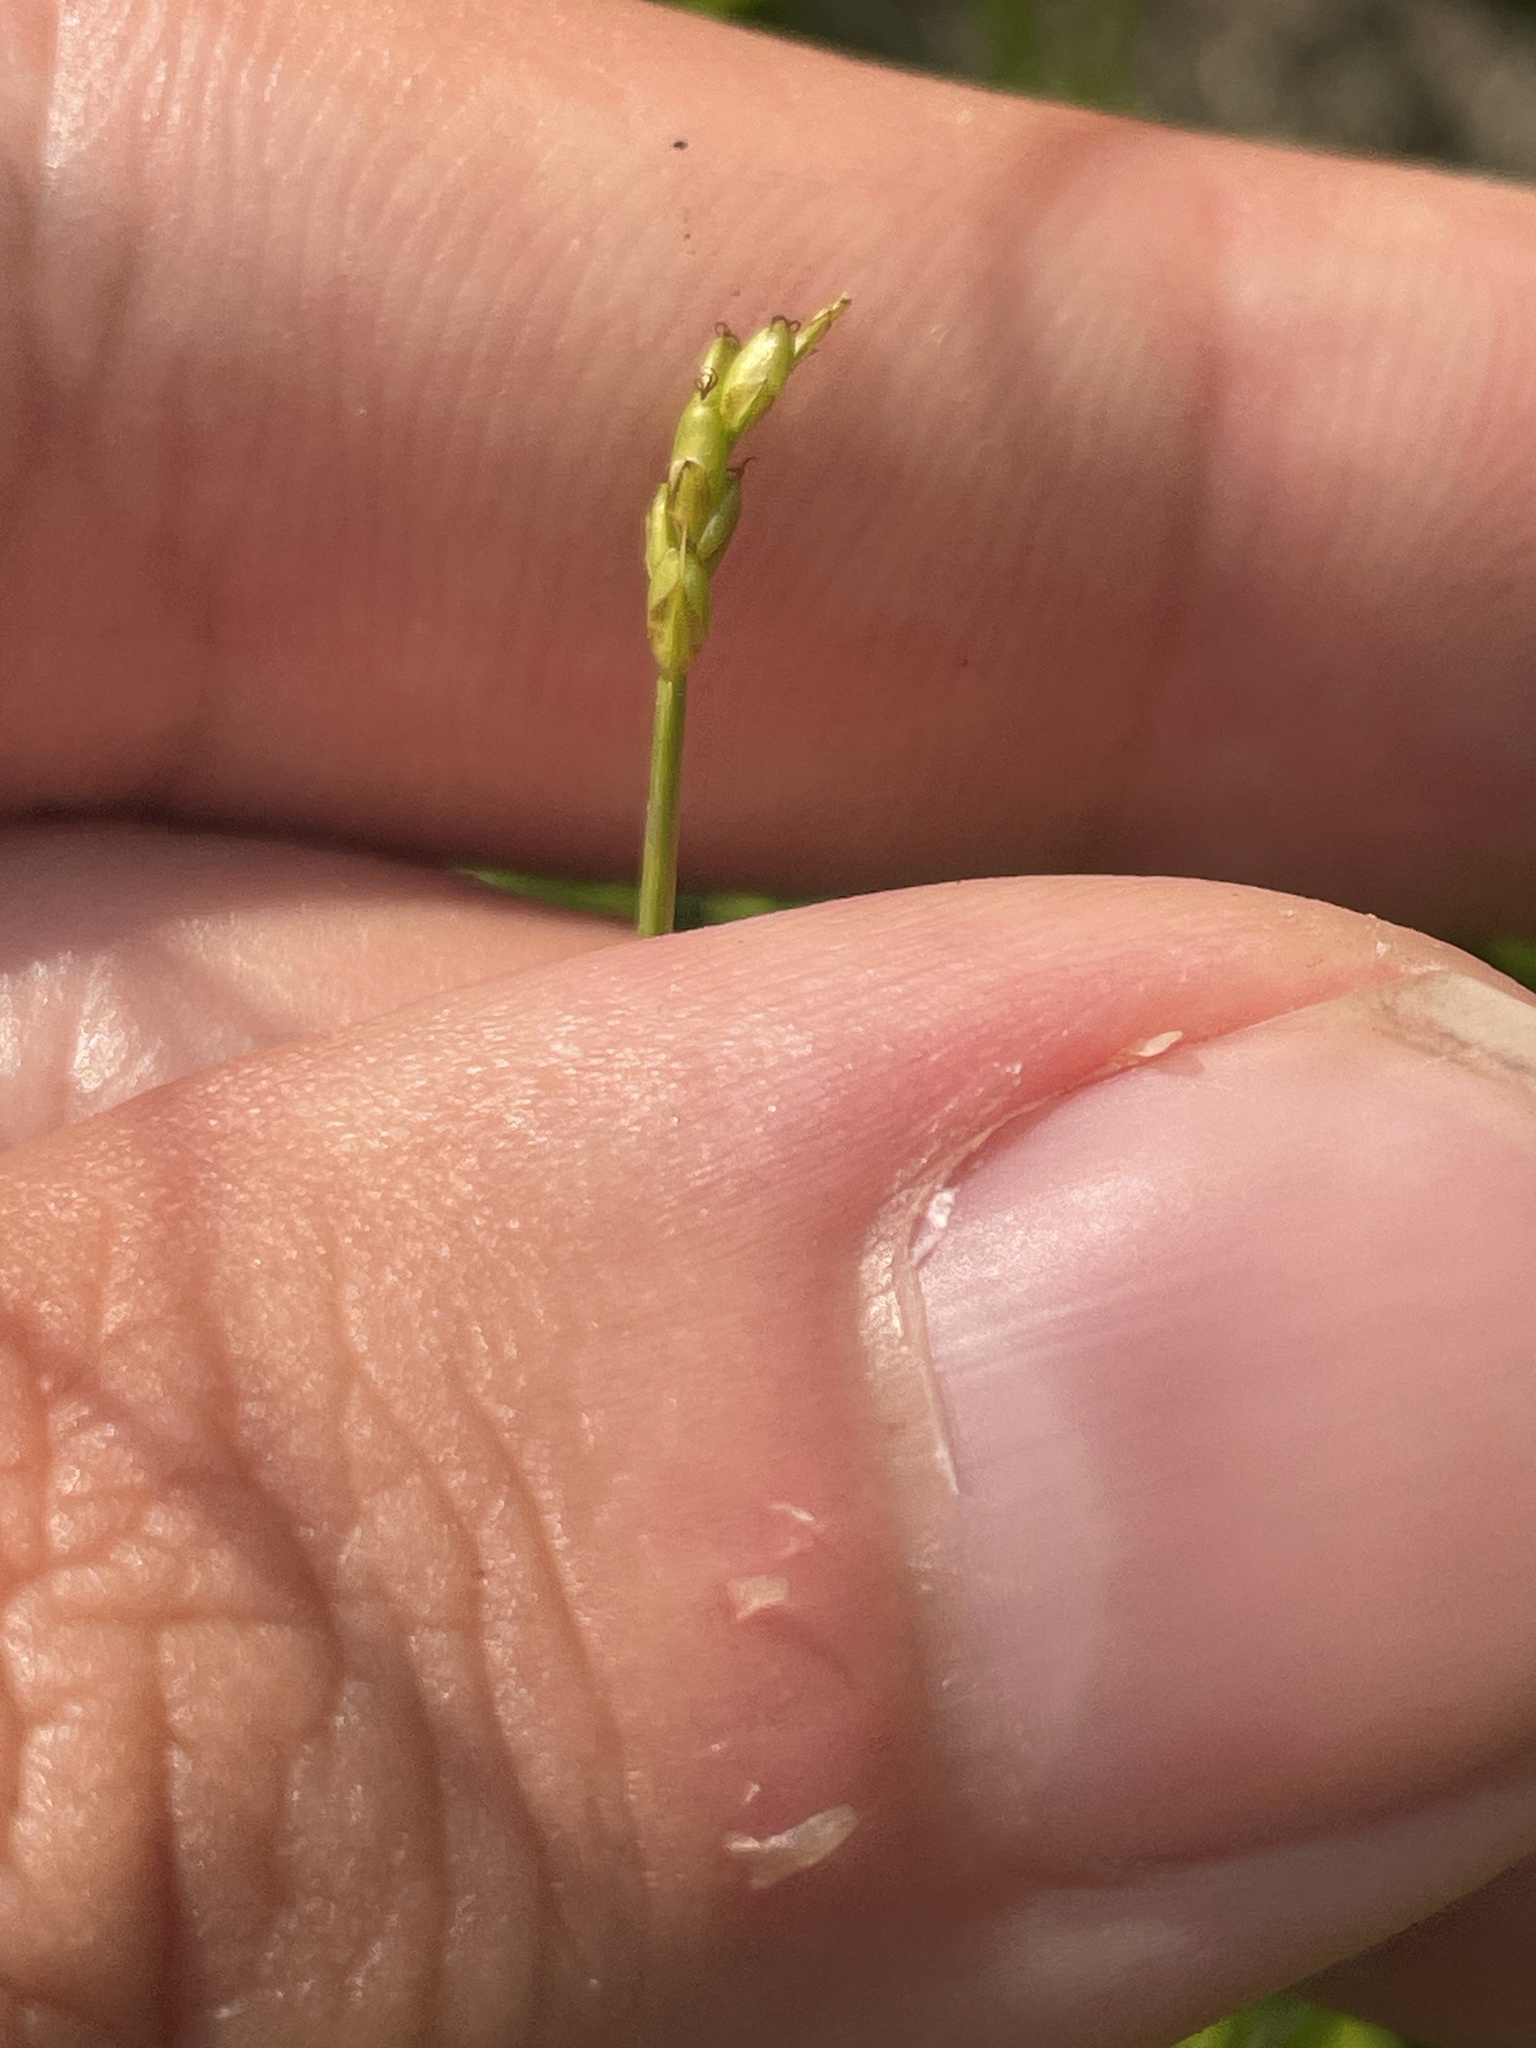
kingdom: Plantae
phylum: Tracheophyta
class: Liliopsida
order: Poales
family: Cyperaceae
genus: Carex
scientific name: Carex leptalea
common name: Bristly-stalked sedge
